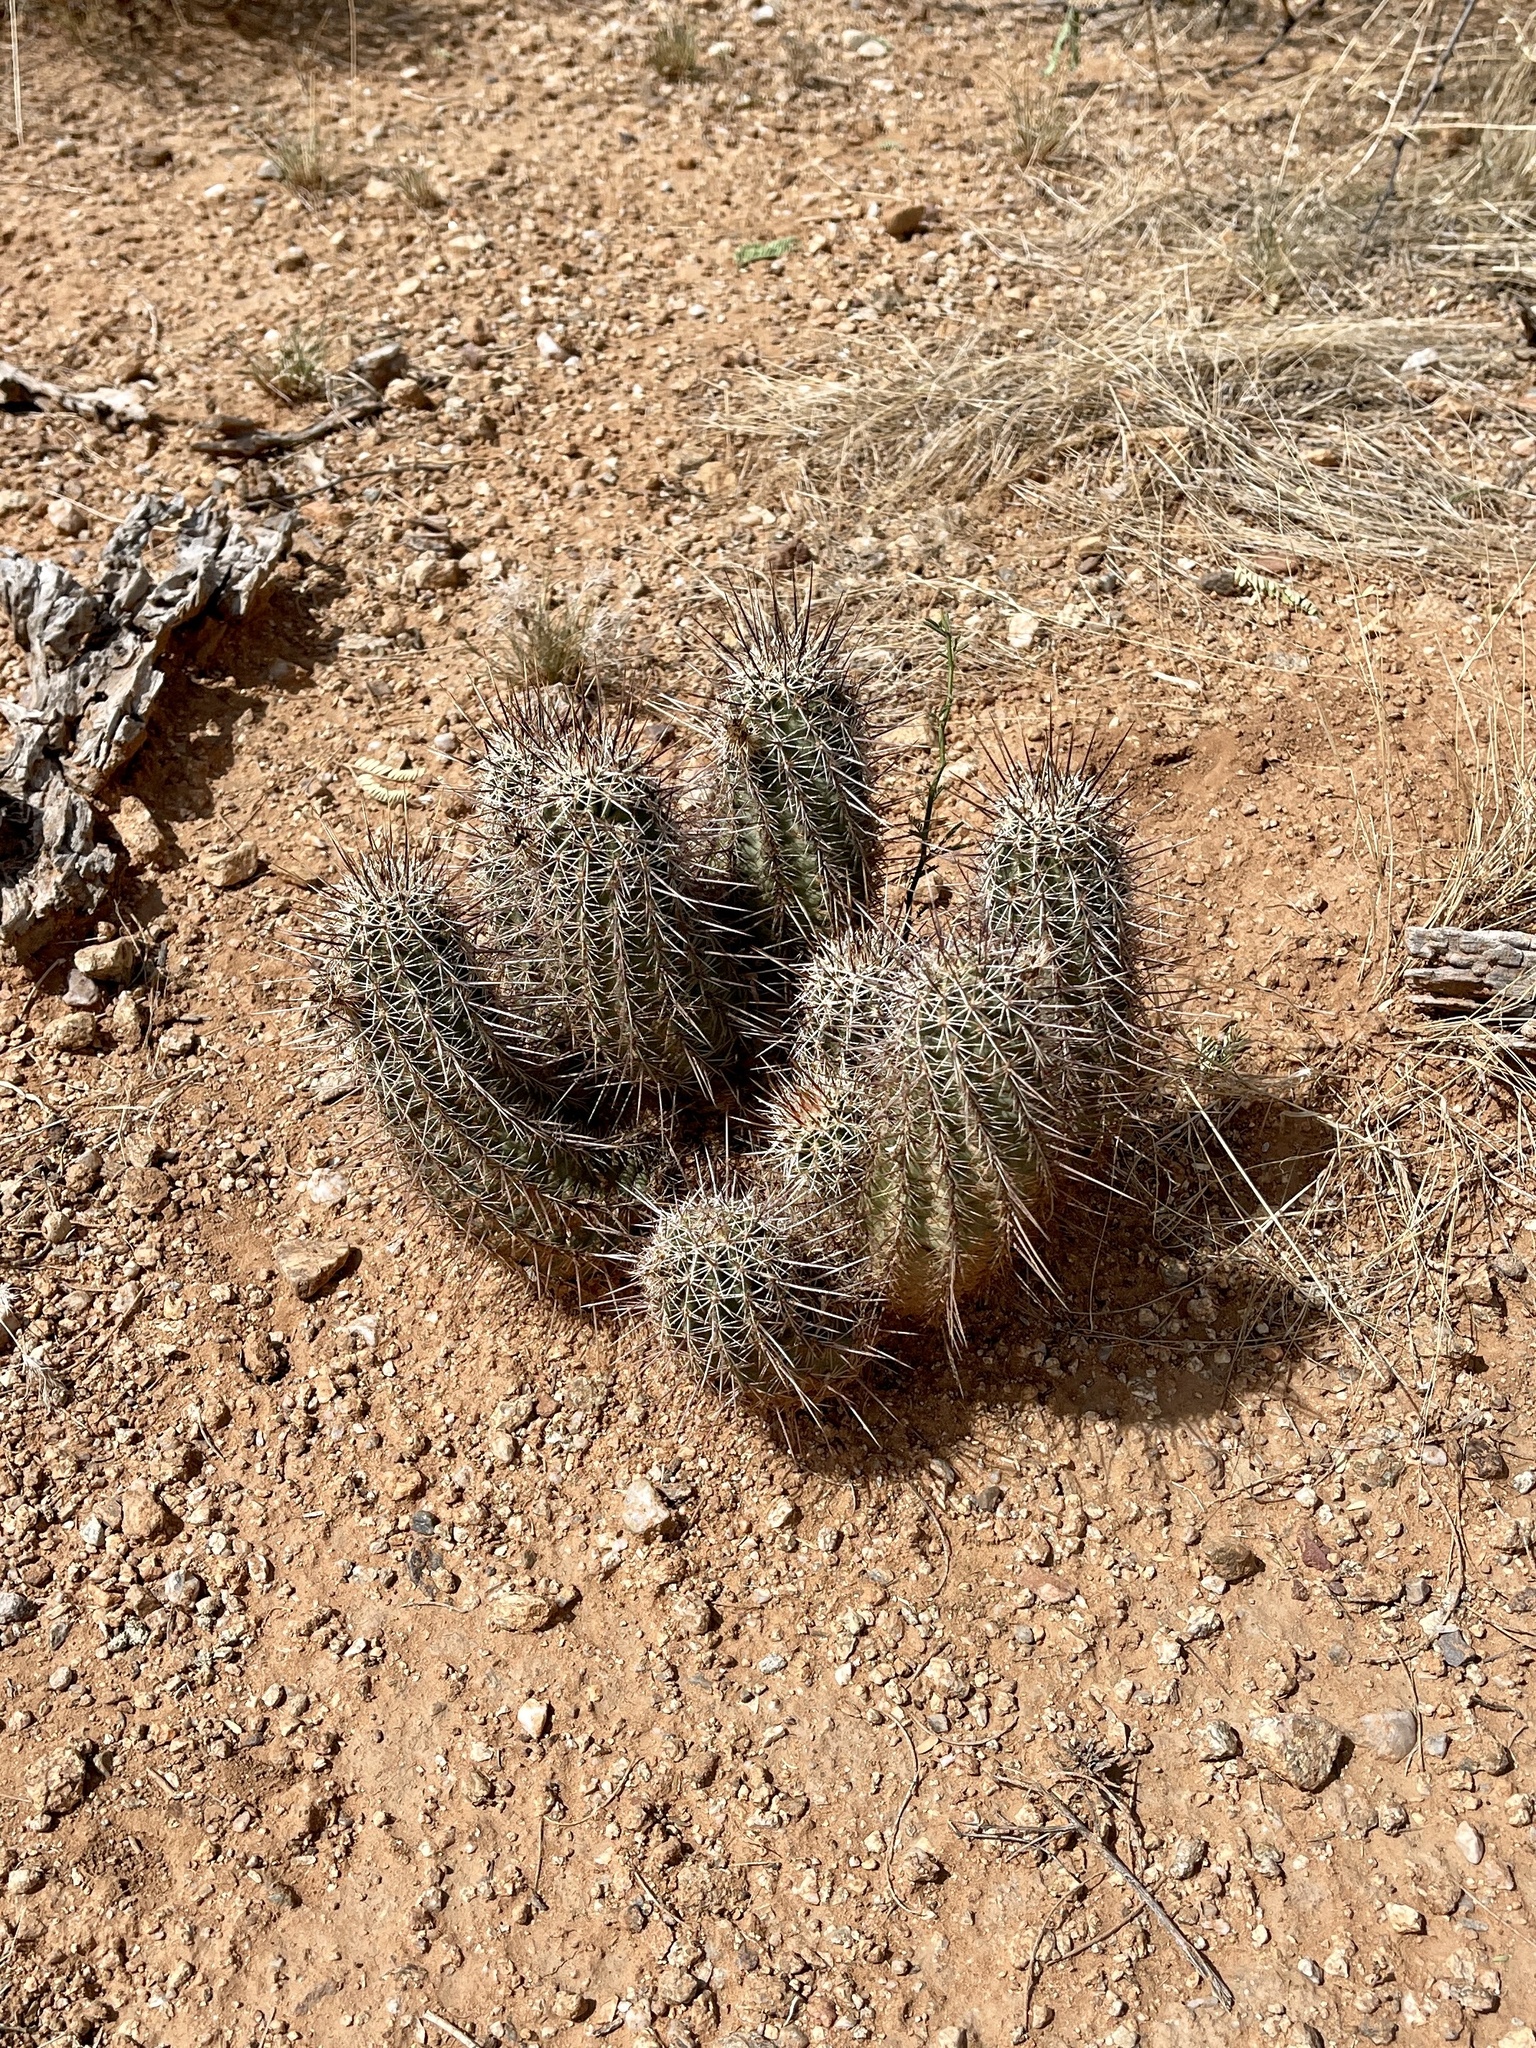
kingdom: Plantae
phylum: Tracheophyta
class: Magnoliopsida
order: Caryophyllales
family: Cactaceae
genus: Echinocereus
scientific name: Echinocereus fasciculatus
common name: Bundle hedgehog
